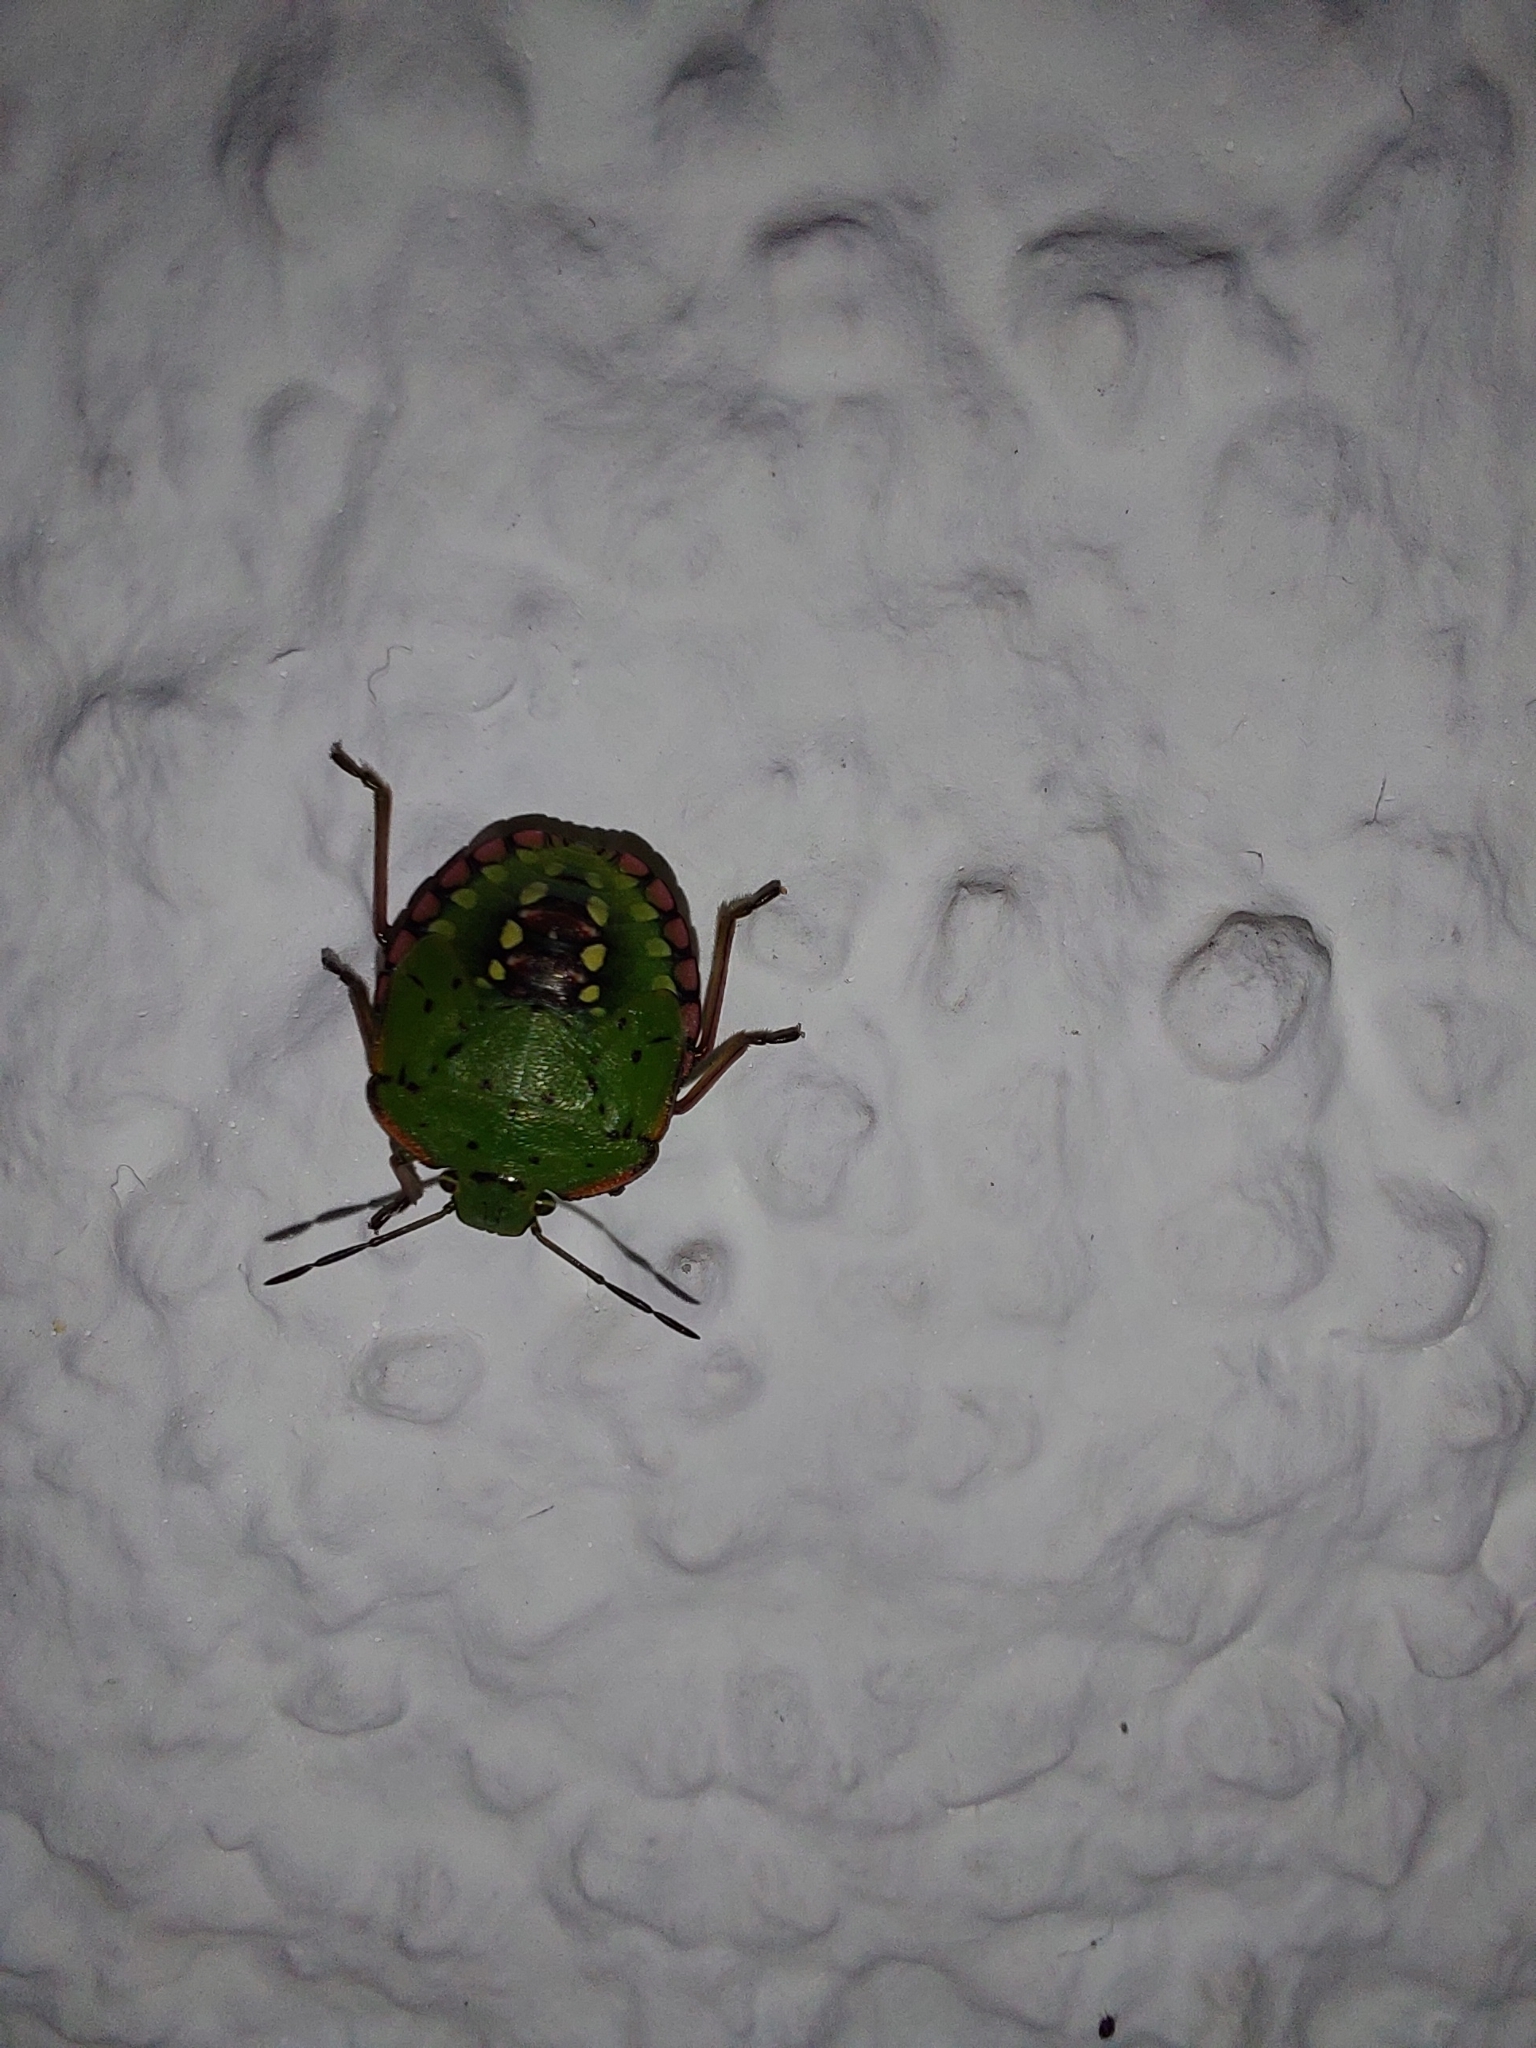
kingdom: Animalia
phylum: Arthropoda
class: Insecta
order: Hemiptera
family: Pentatomidae
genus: Nezara
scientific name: Nezara viridula
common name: Southern green stink bug
